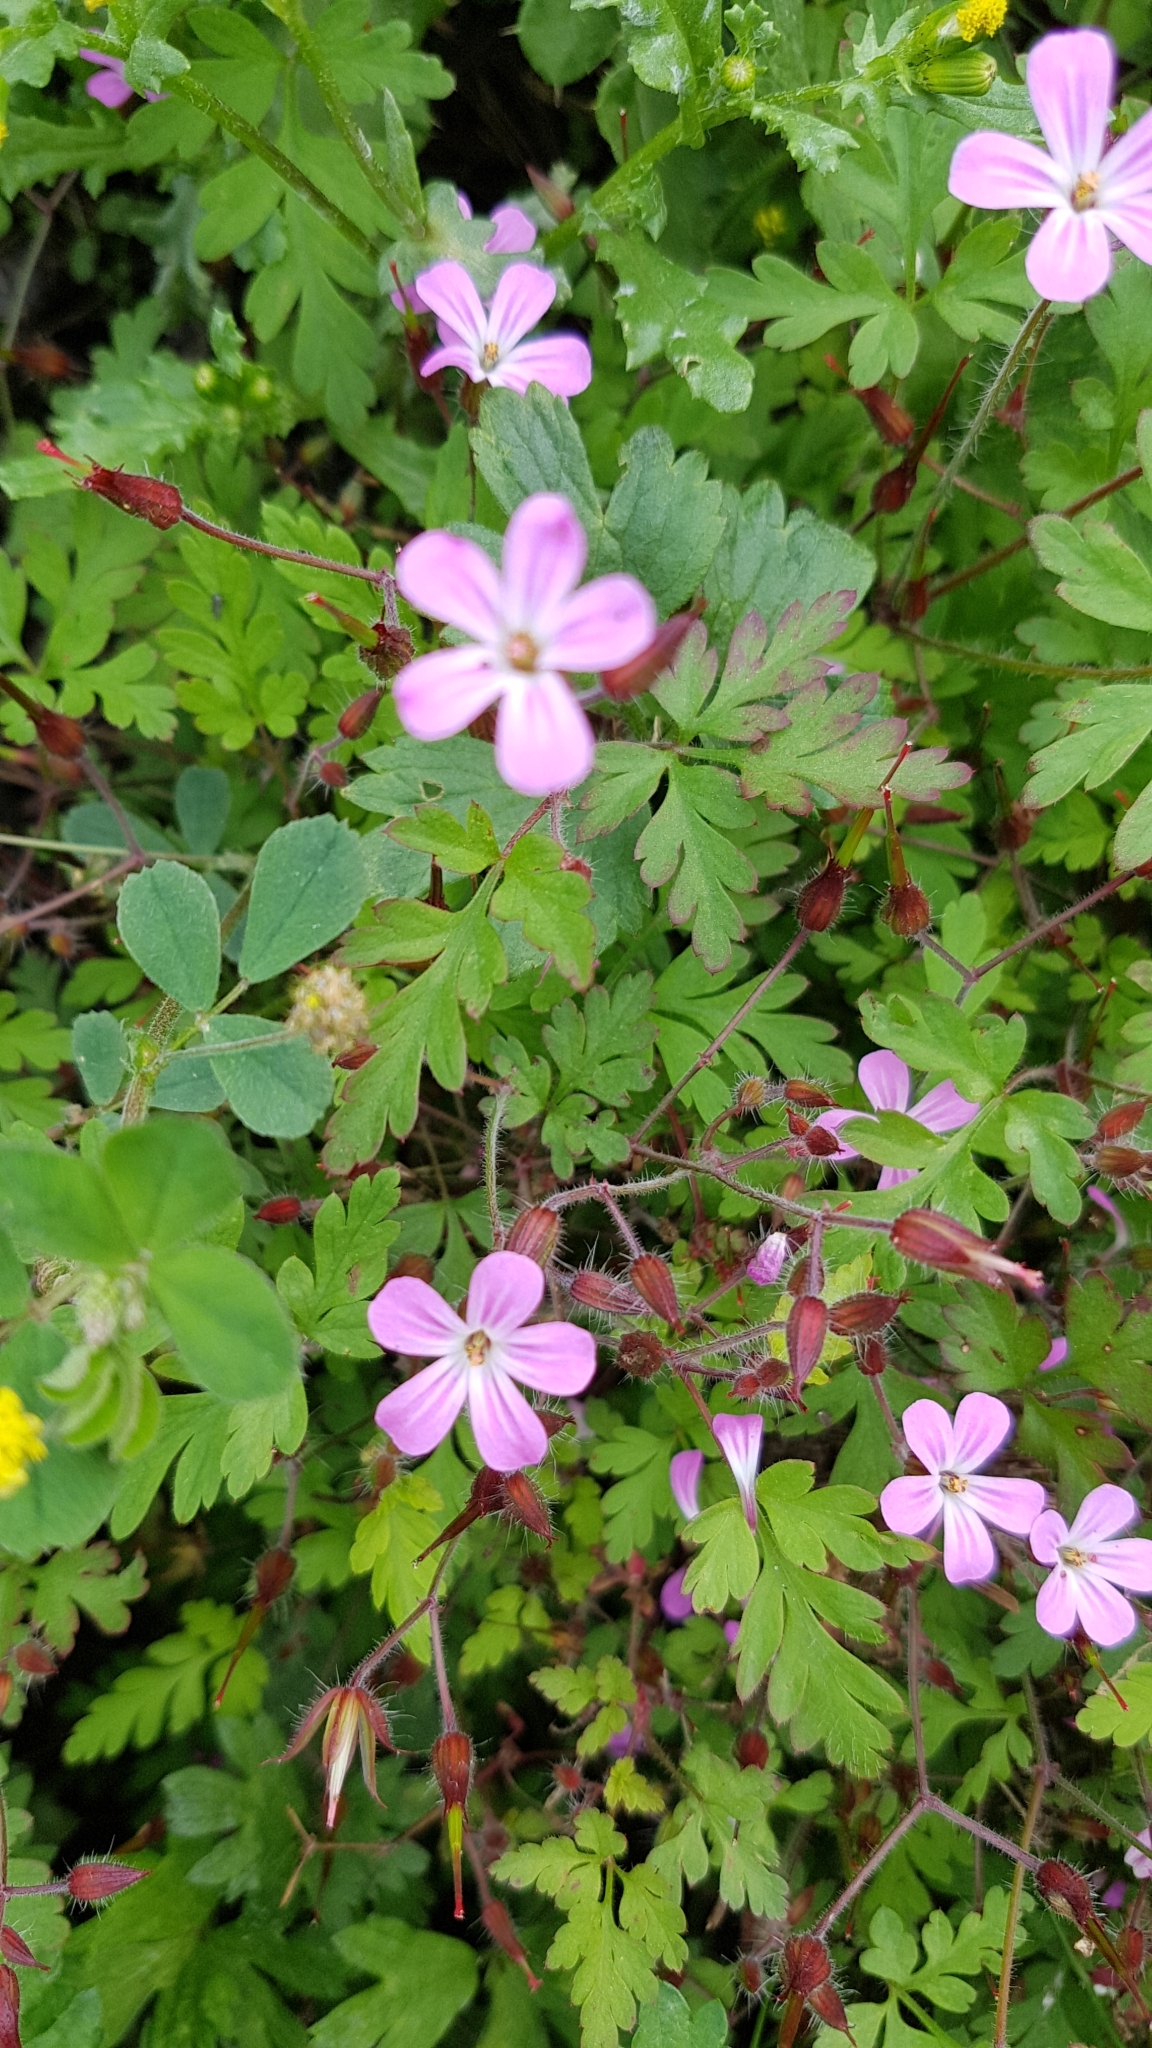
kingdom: Plantae
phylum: Tracheophyta
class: Magnoliopsida
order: Geraniales
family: Geraniaceae
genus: Geranium
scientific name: Geranium robertianum
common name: Herb-robert
